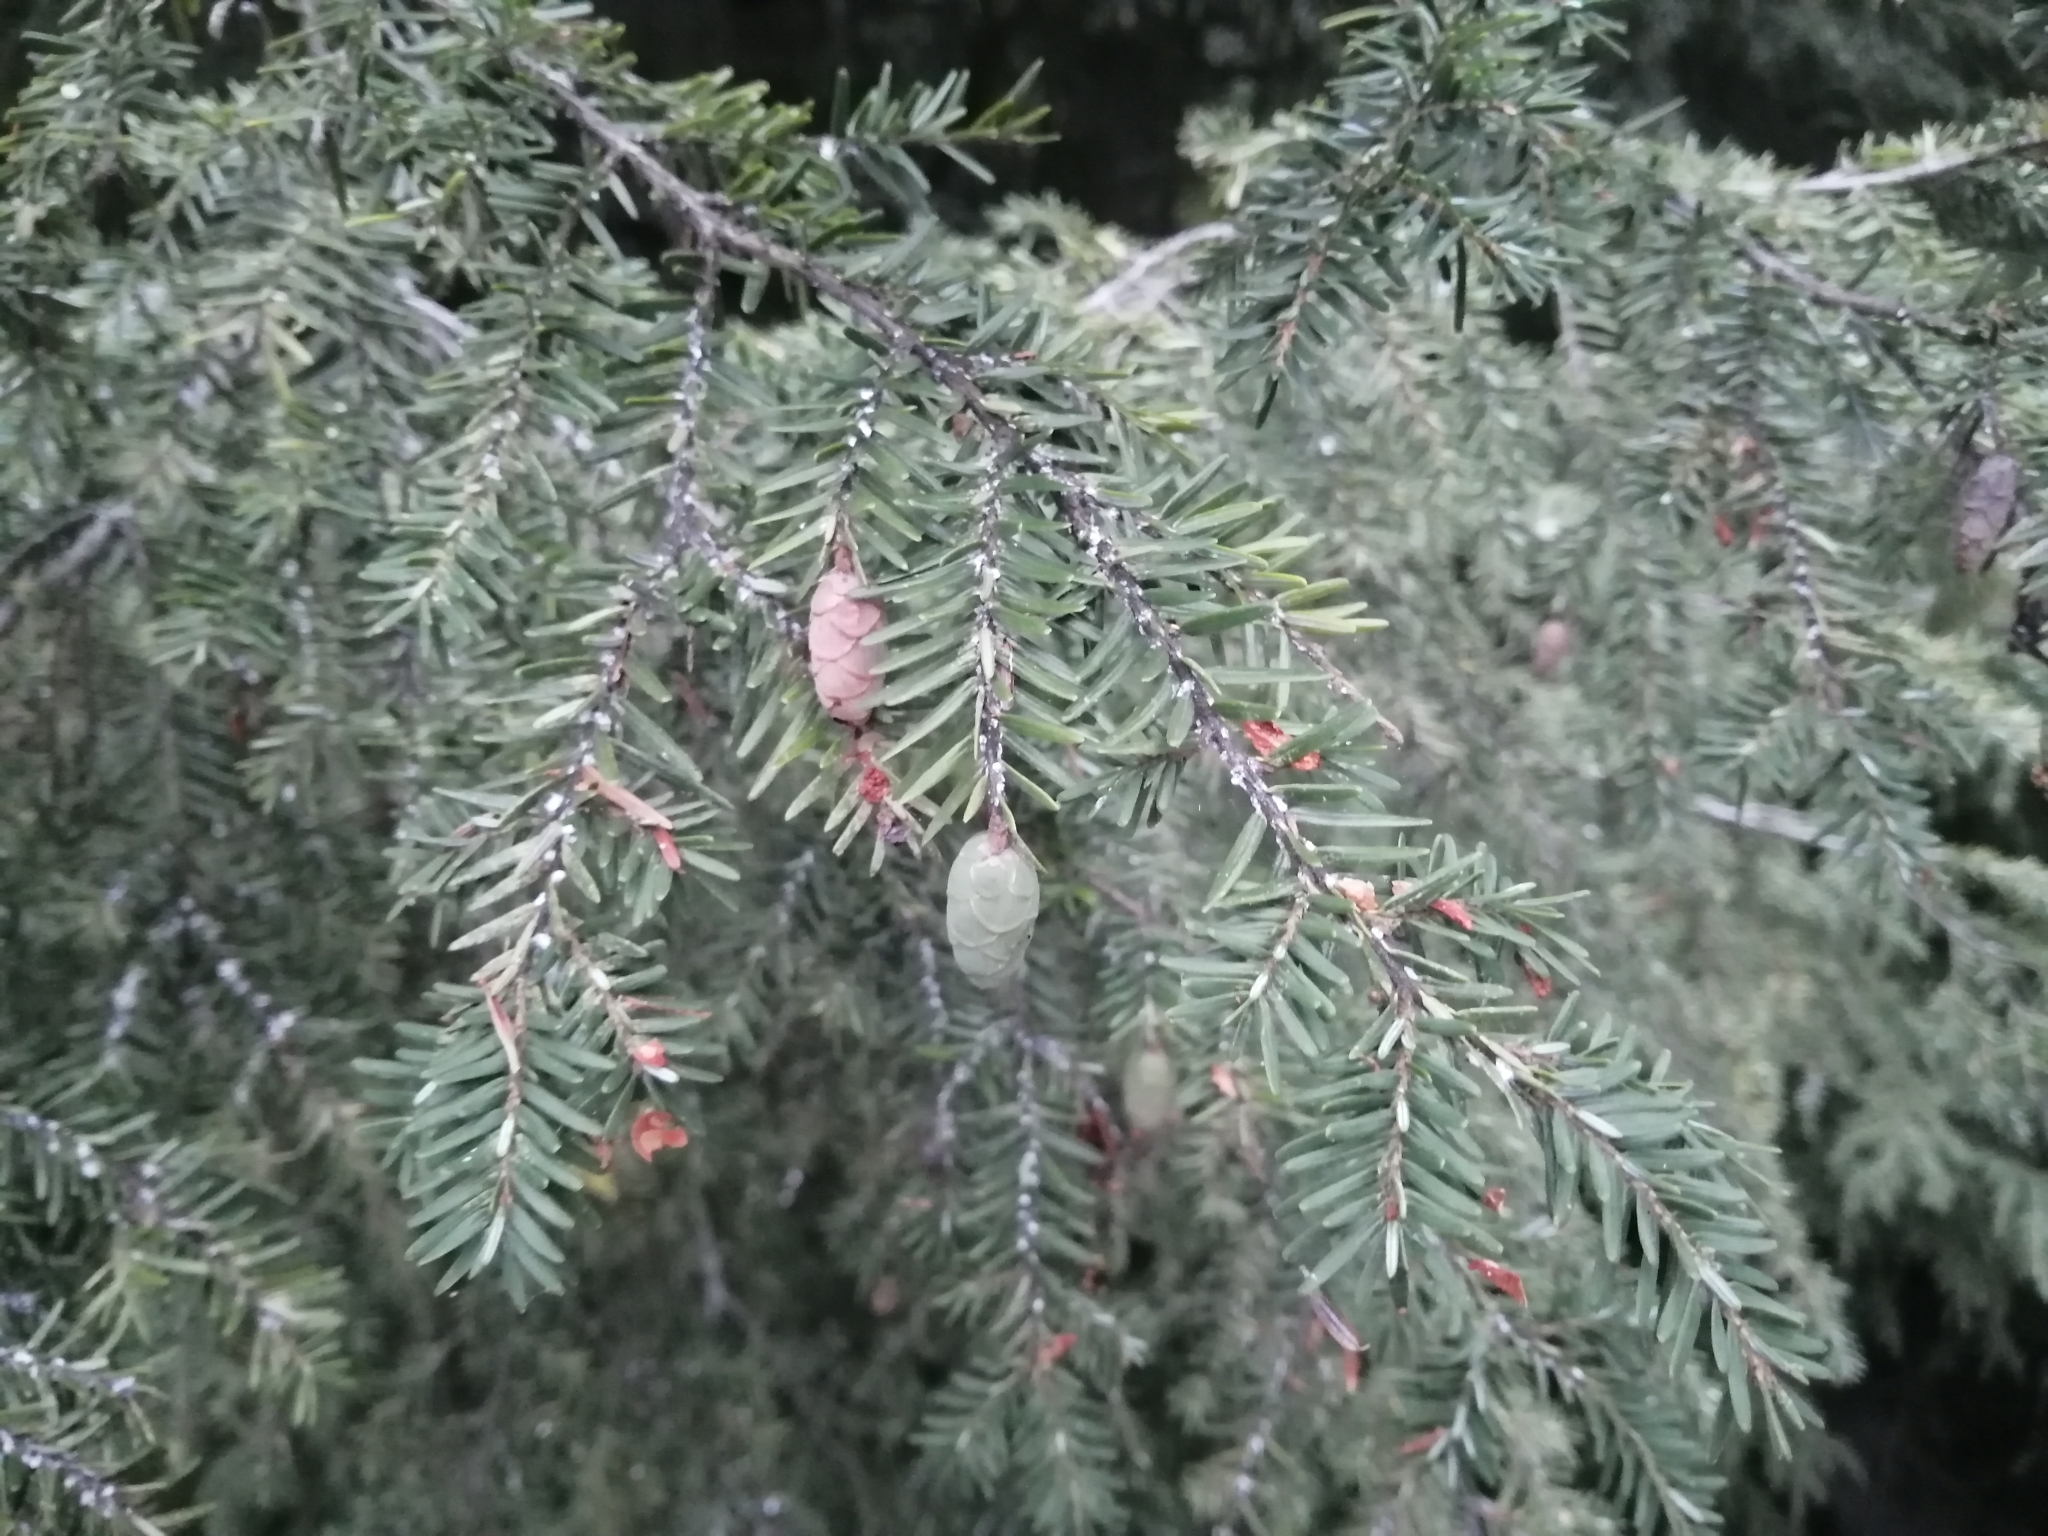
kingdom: Plantae
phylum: Tracheophyta
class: Pinopsida
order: Pinales
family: Pinaceae
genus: Tsuga
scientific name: Tsuga canadensis
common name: Eastern hemlock
